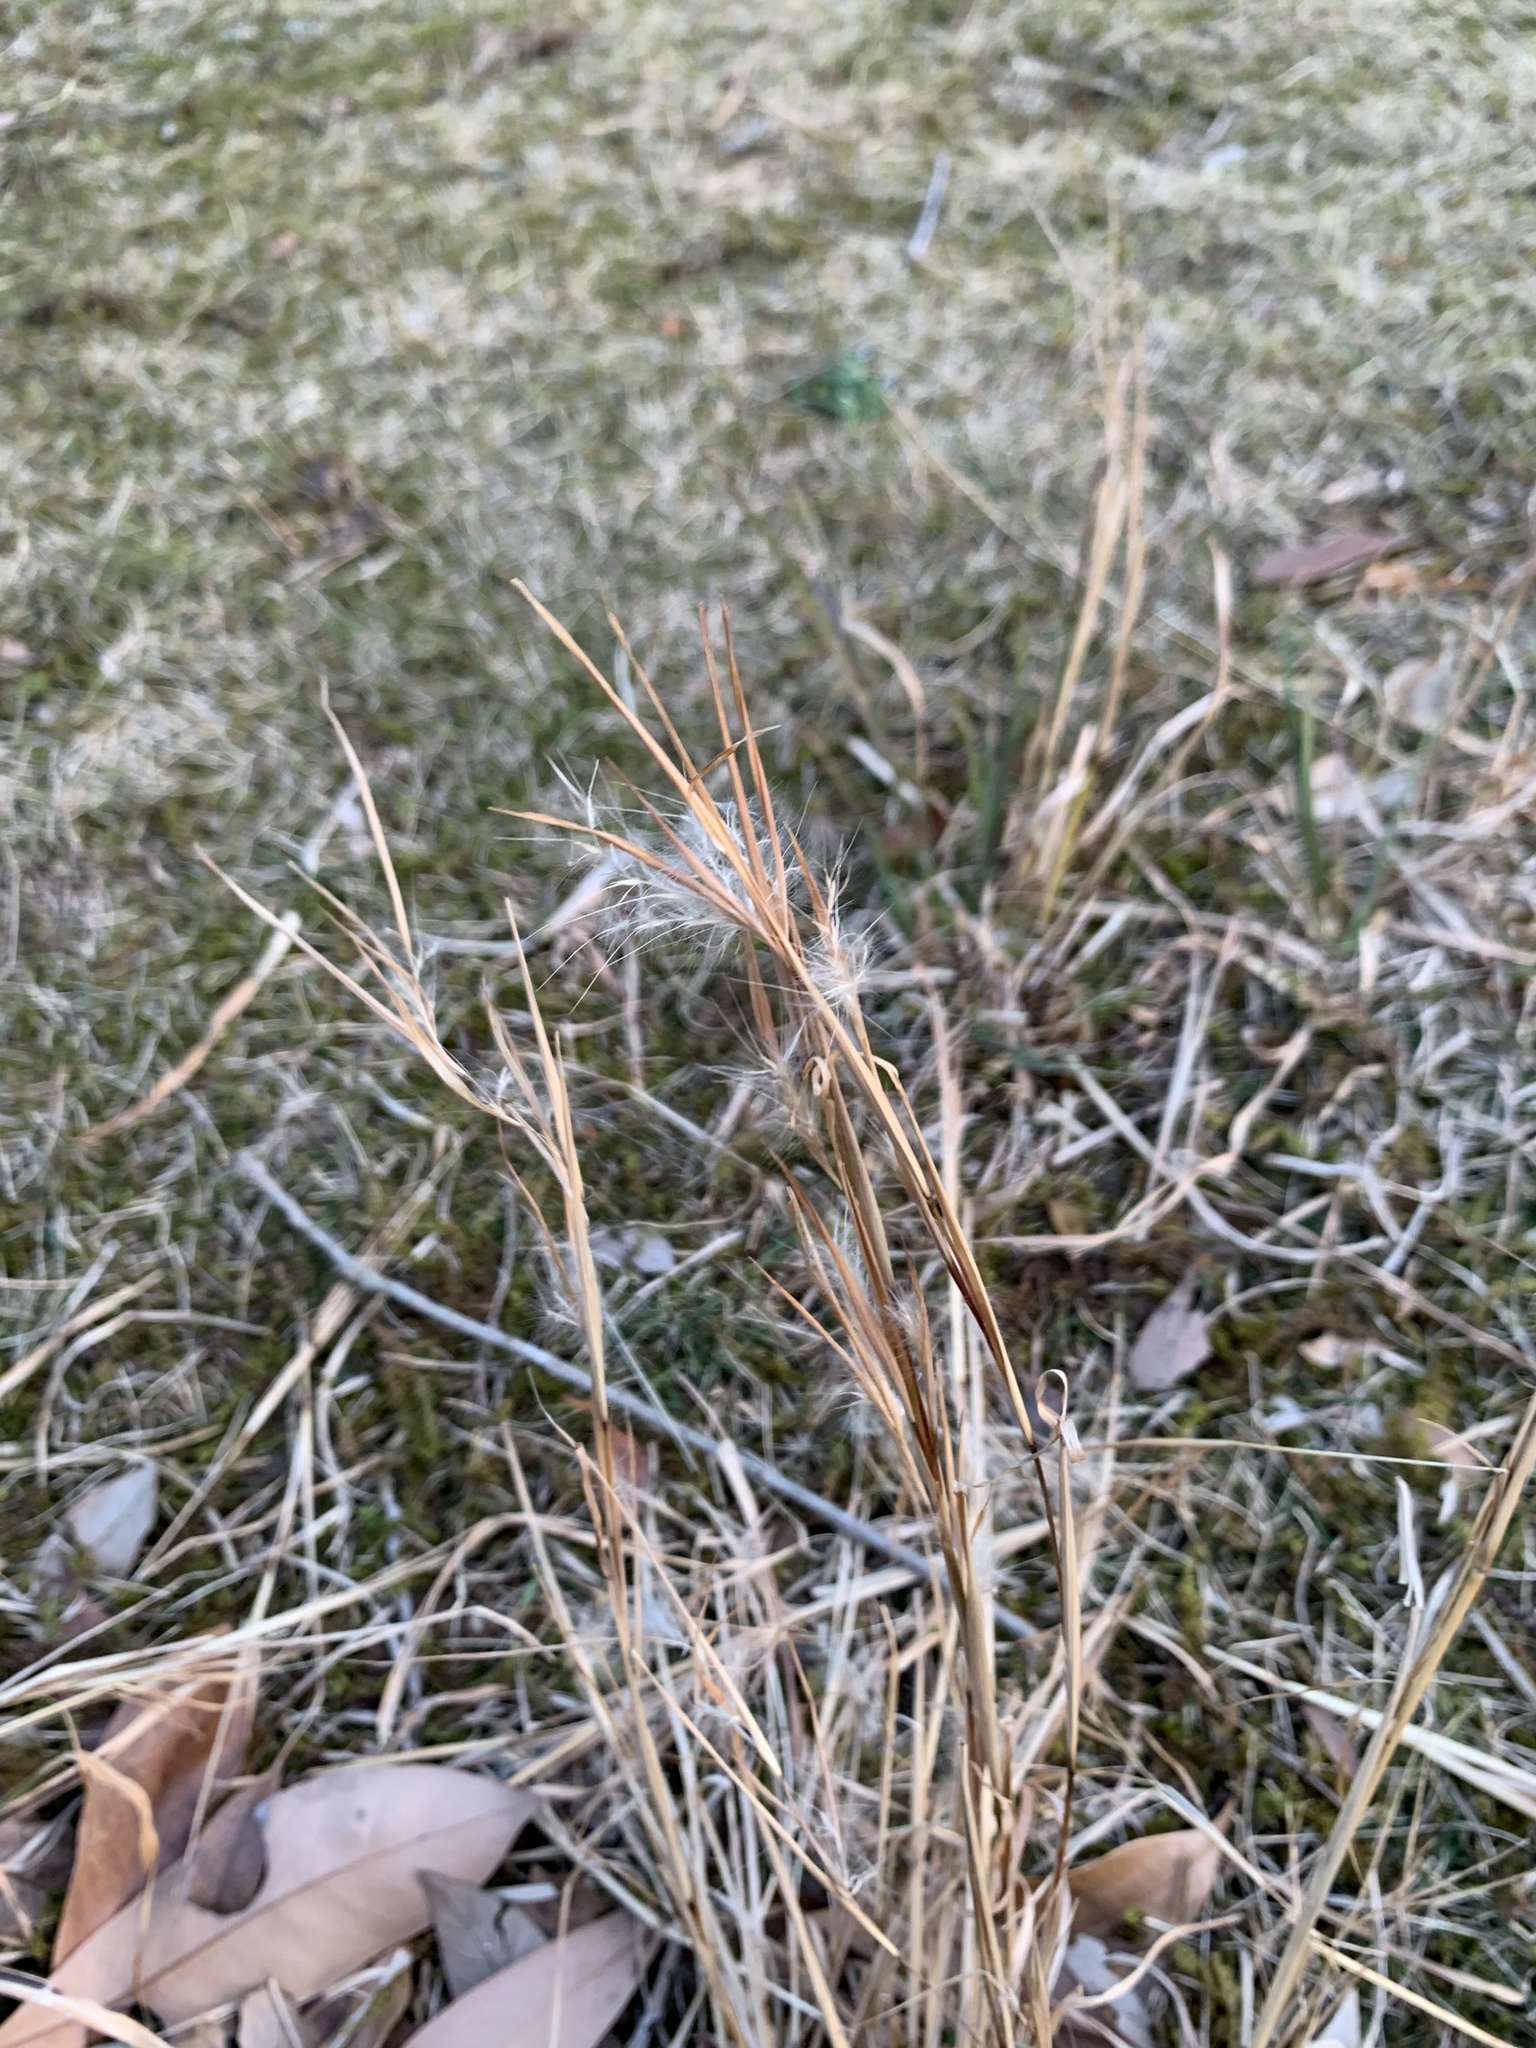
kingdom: Plantae
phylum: Tracheophyta
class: Liliopsida
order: Poales
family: Poaceae
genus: Andropogon
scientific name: Andropogon virginicus
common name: Broomsedge bluestem
